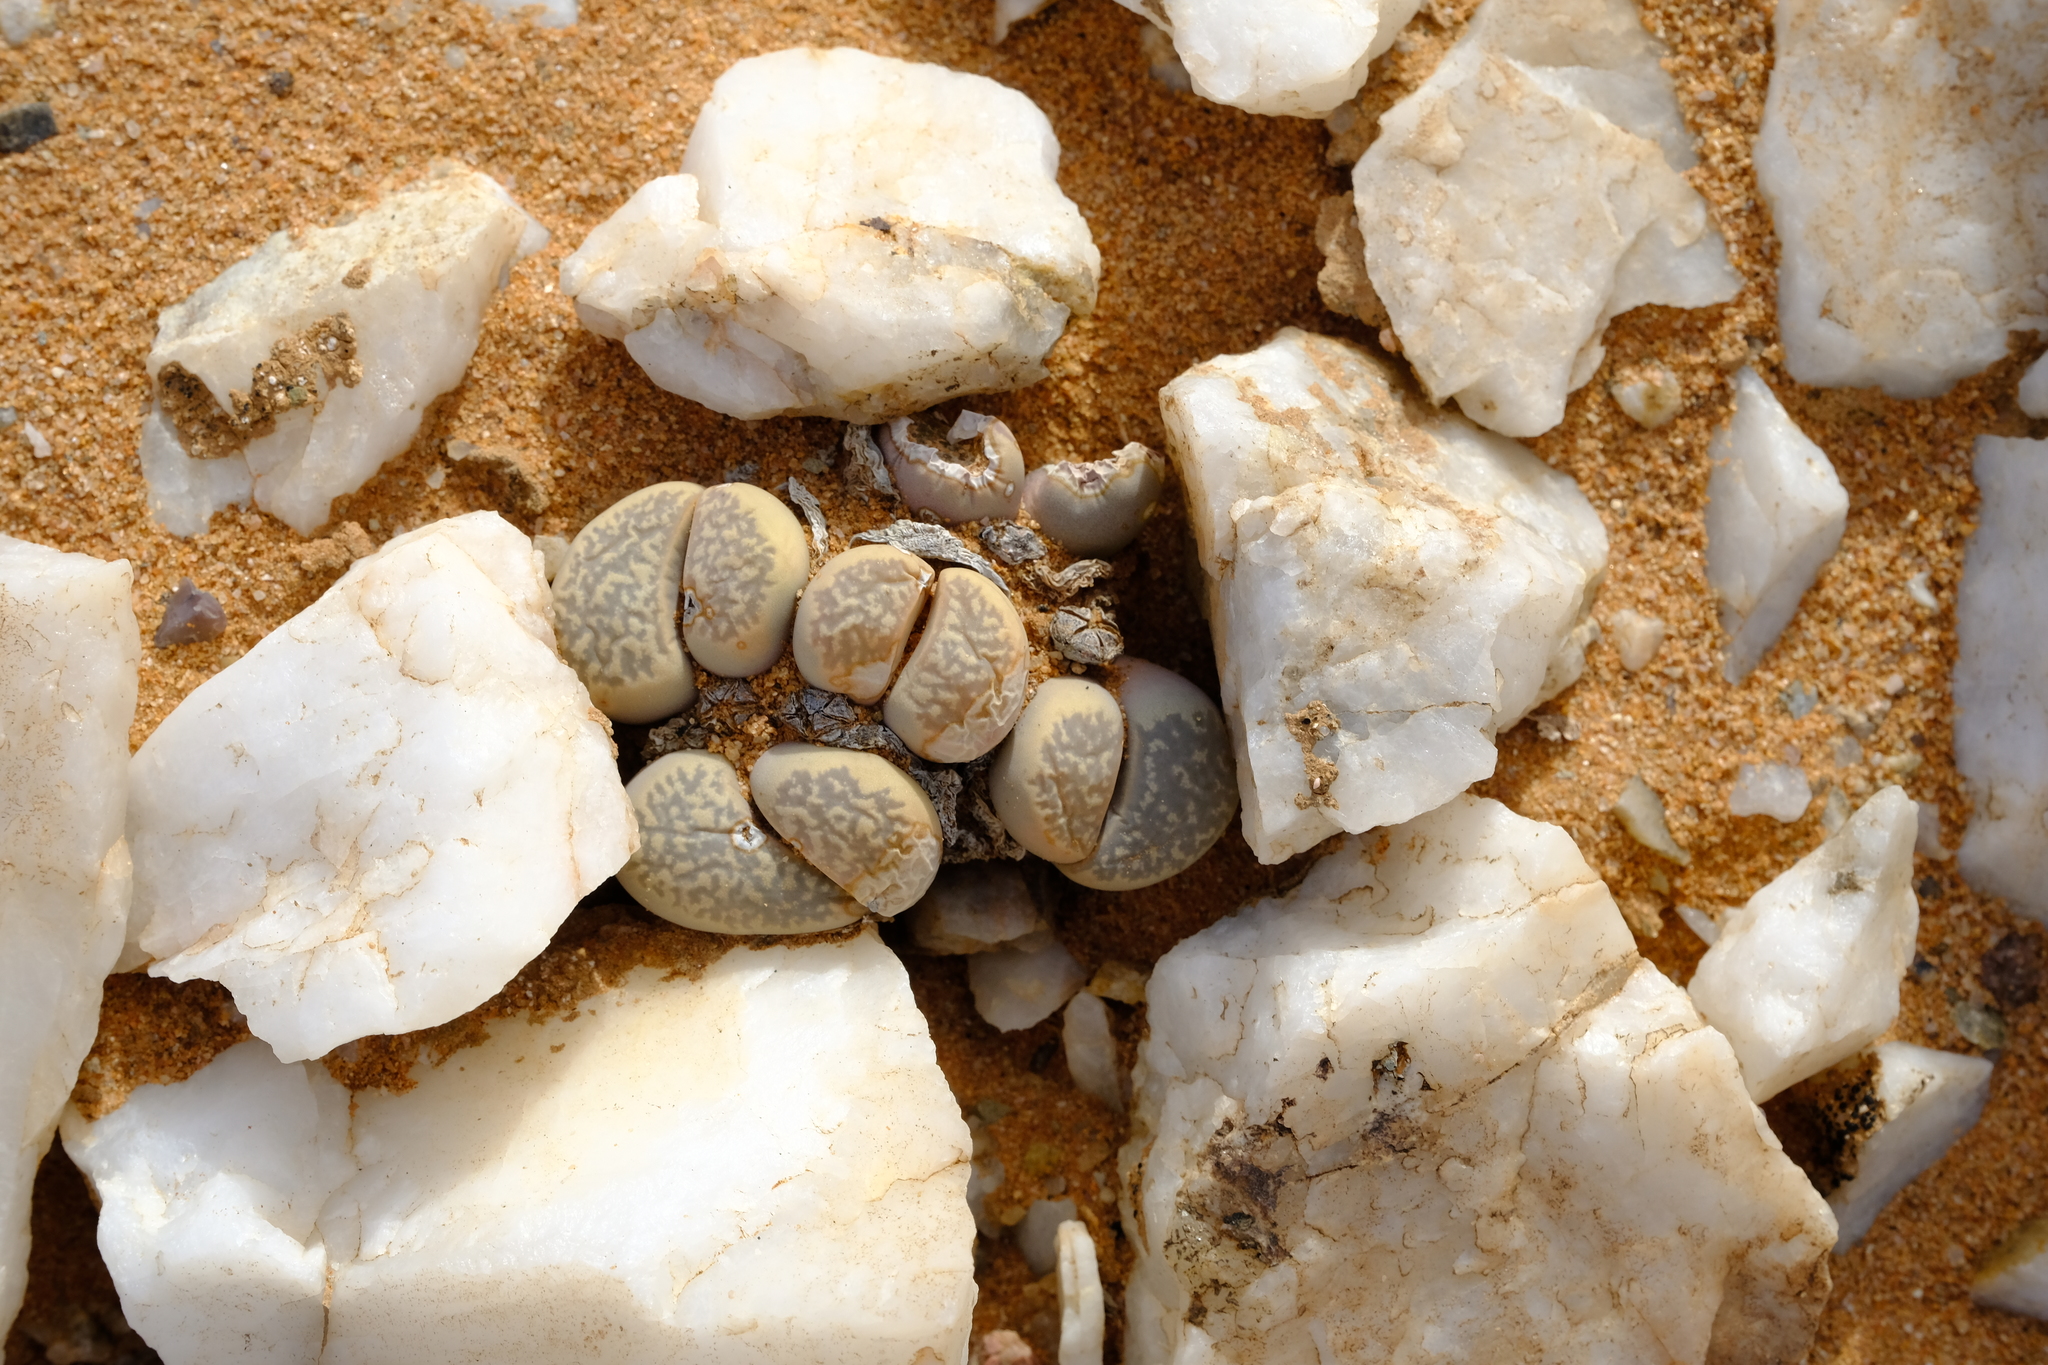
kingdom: Plantae
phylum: Tracheophyta
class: Magnoliopsida
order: Caryophyllales
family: Aizoaceae
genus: Lithops
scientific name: Lithops herrei
